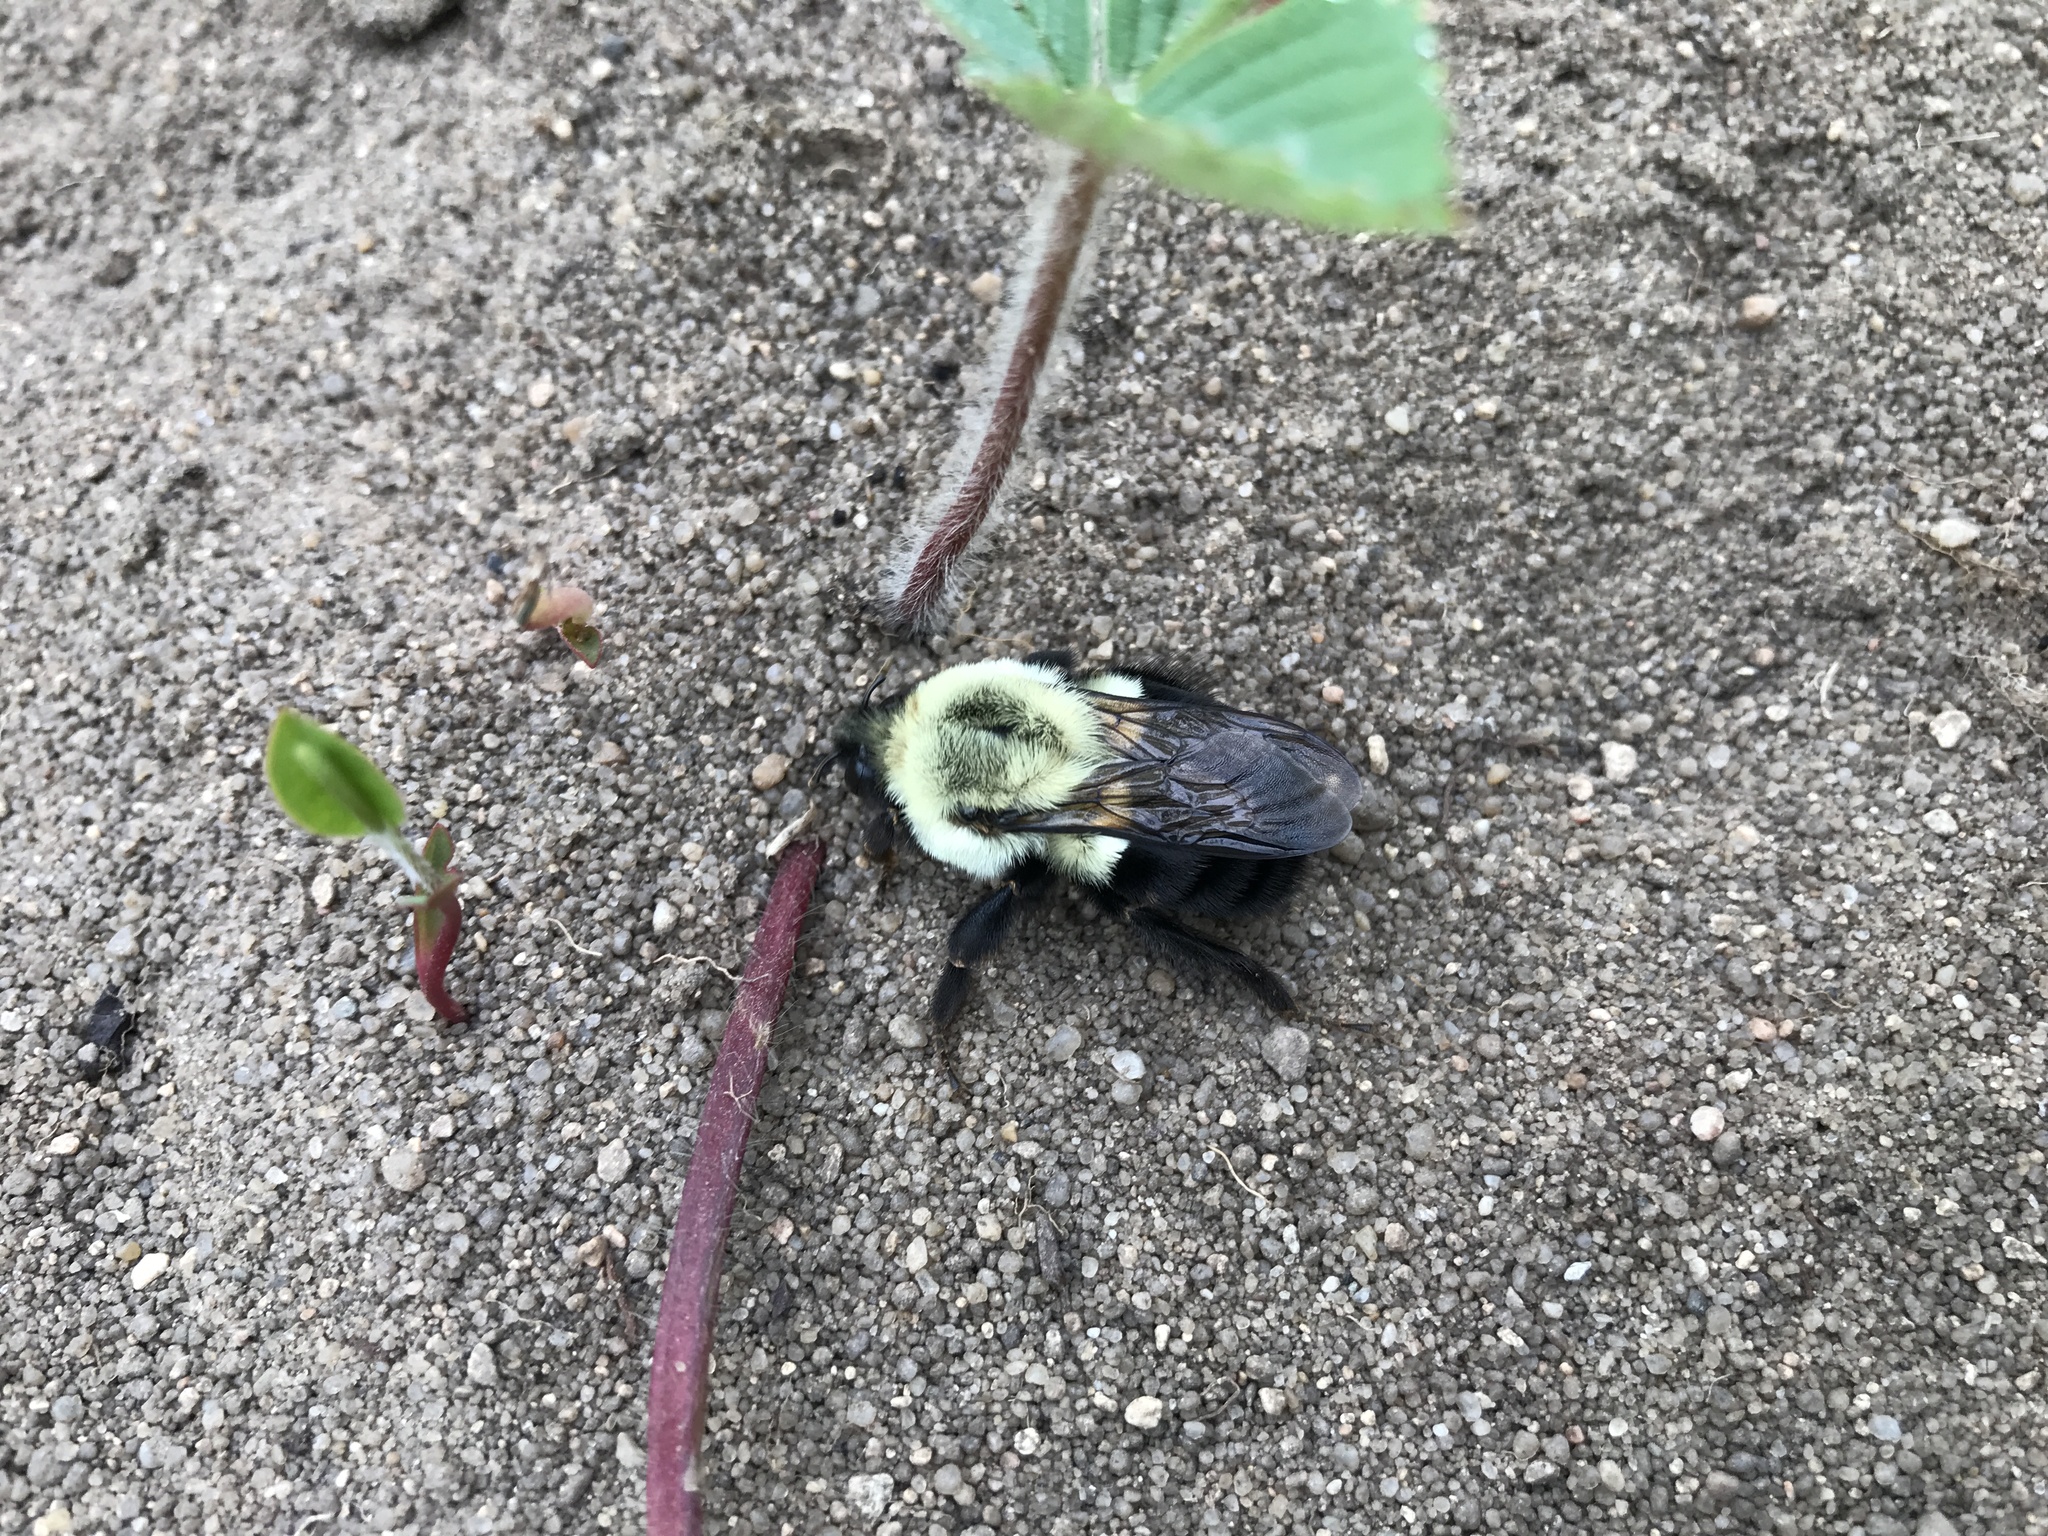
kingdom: Animalia
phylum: Arthropoda
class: Insecta
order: Hymenoptera
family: Apidae
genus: Bombus
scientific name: Bombus impatiens
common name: Common eastern bumble bee
